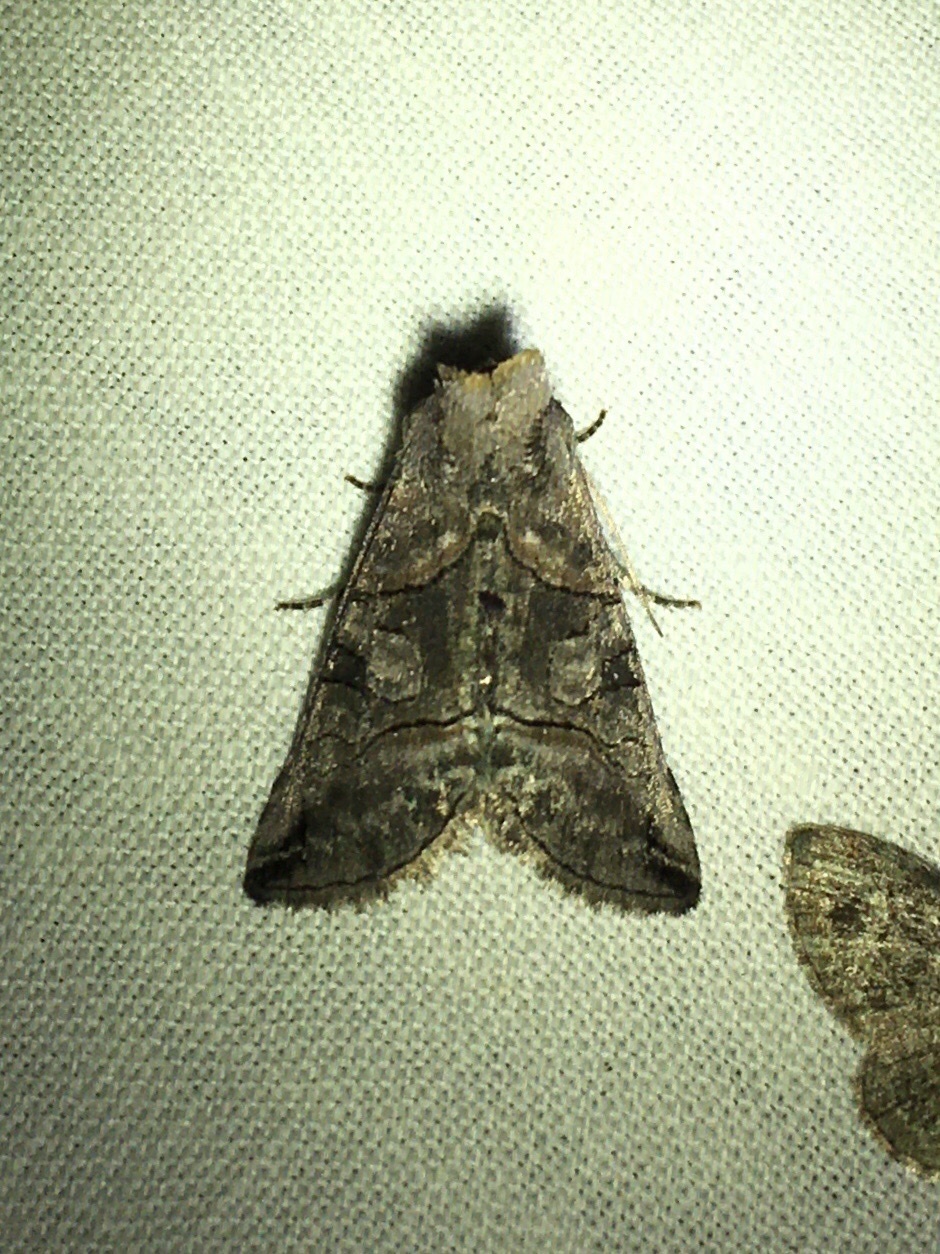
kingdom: Animalia
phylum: Arthropoda
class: Insecta
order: Lepidoptera
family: Noctuidae
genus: Abrostola
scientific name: Abrostola urentis
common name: Spectacled nettle moth
